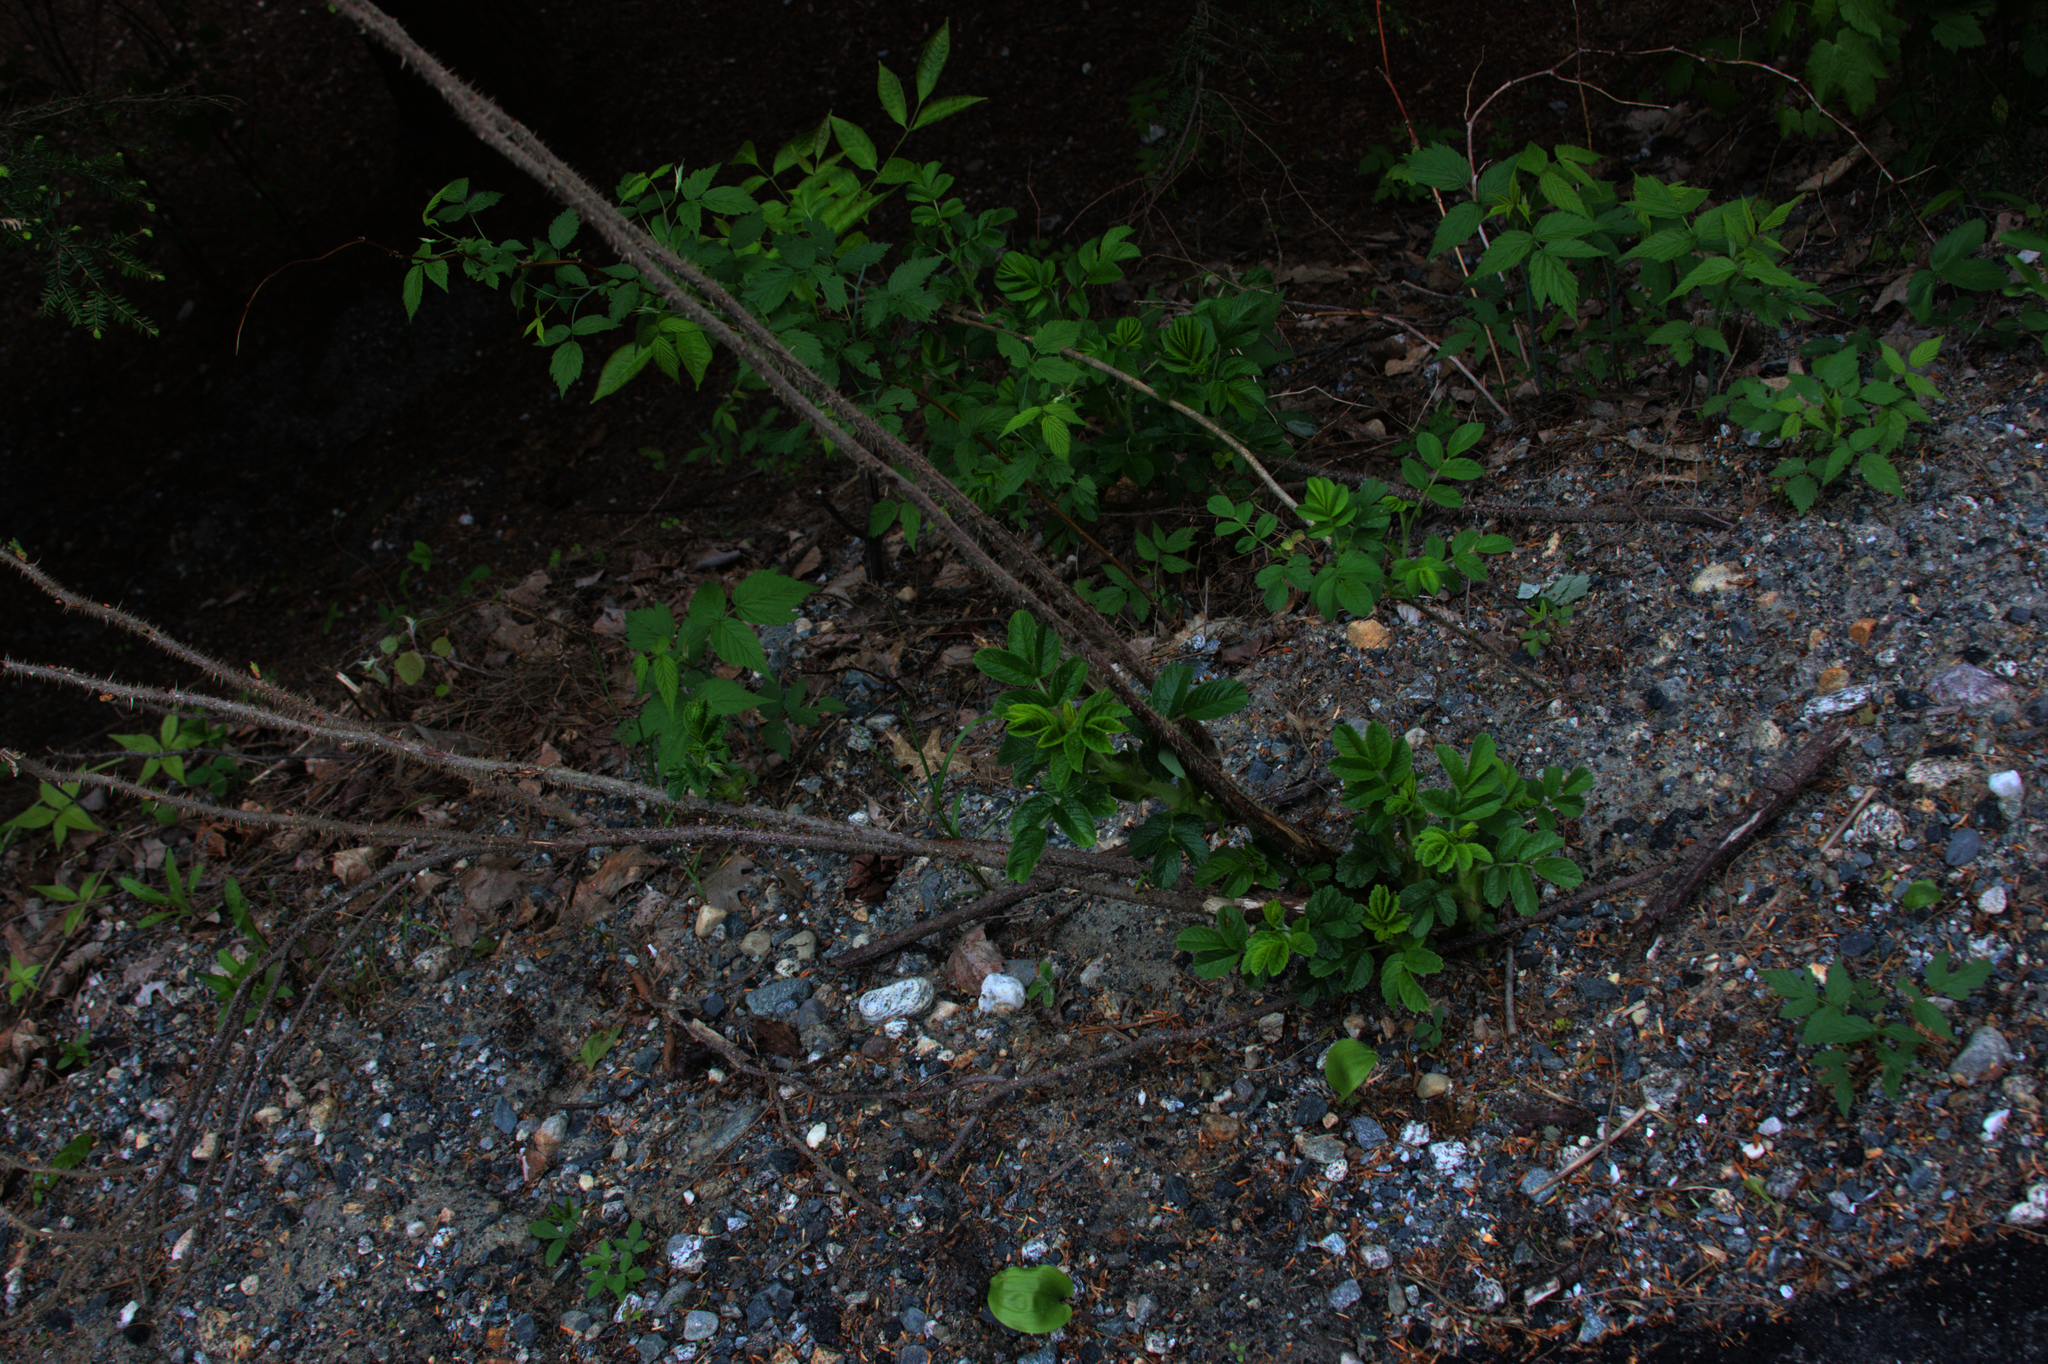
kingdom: Plantae
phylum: Tracheophyta
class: Magnoliopsida
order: Rosales
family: Rosaceae
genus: Rosa
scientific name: Rosa rugosa
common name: Japanese rose
